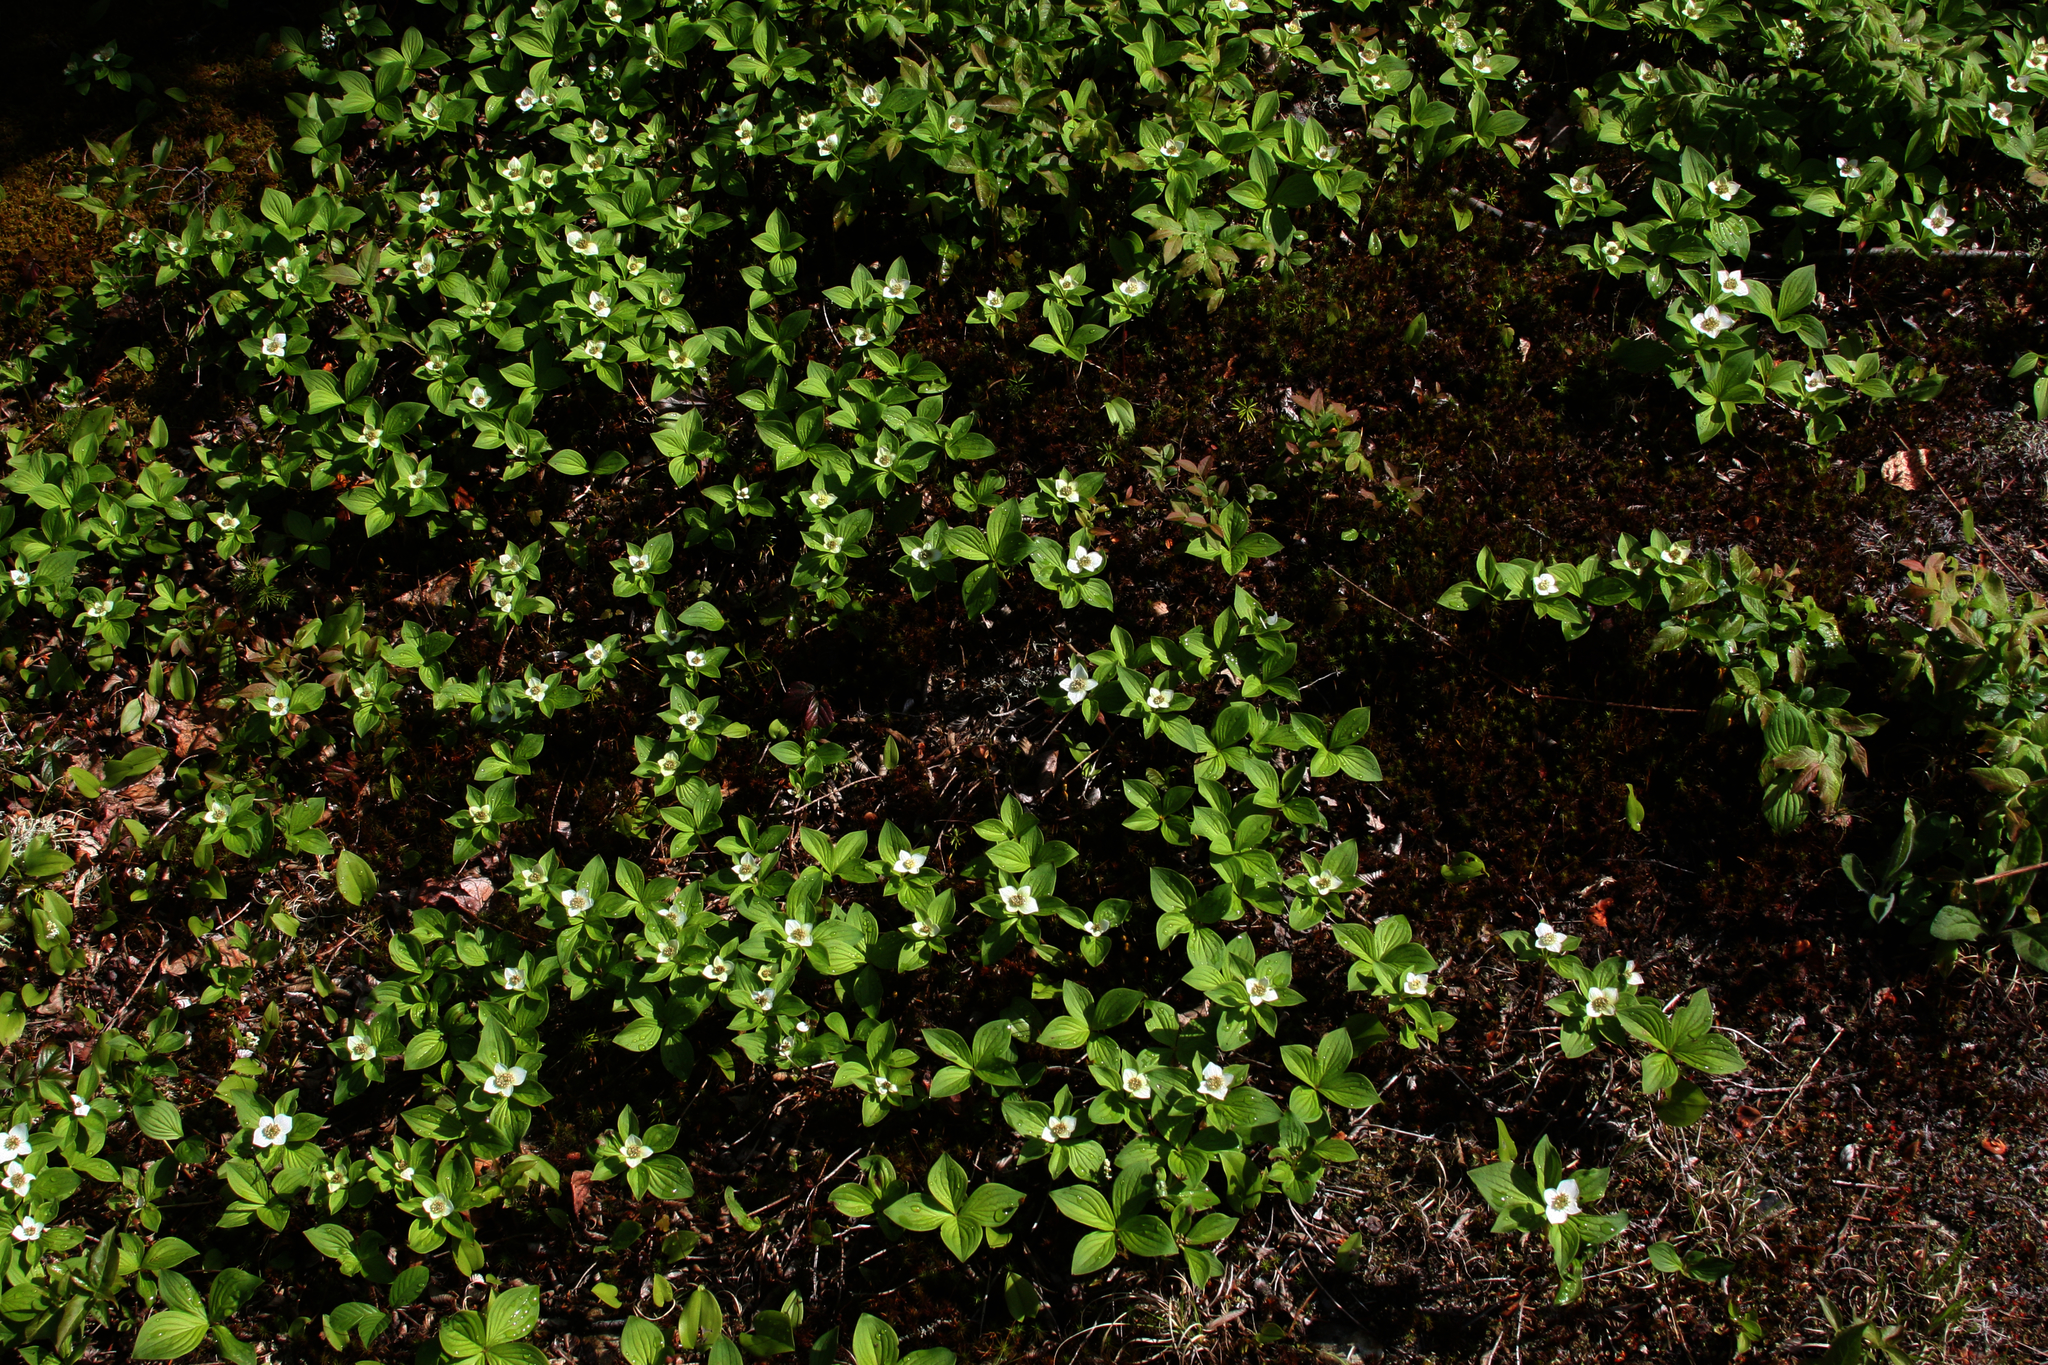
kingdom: Plantae
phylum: Tracheophyta
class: Magnoliopsida
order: Cornales
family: Cornaceae
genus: Cornus
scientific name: Cornus canadensis
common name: Creeping dogwood
